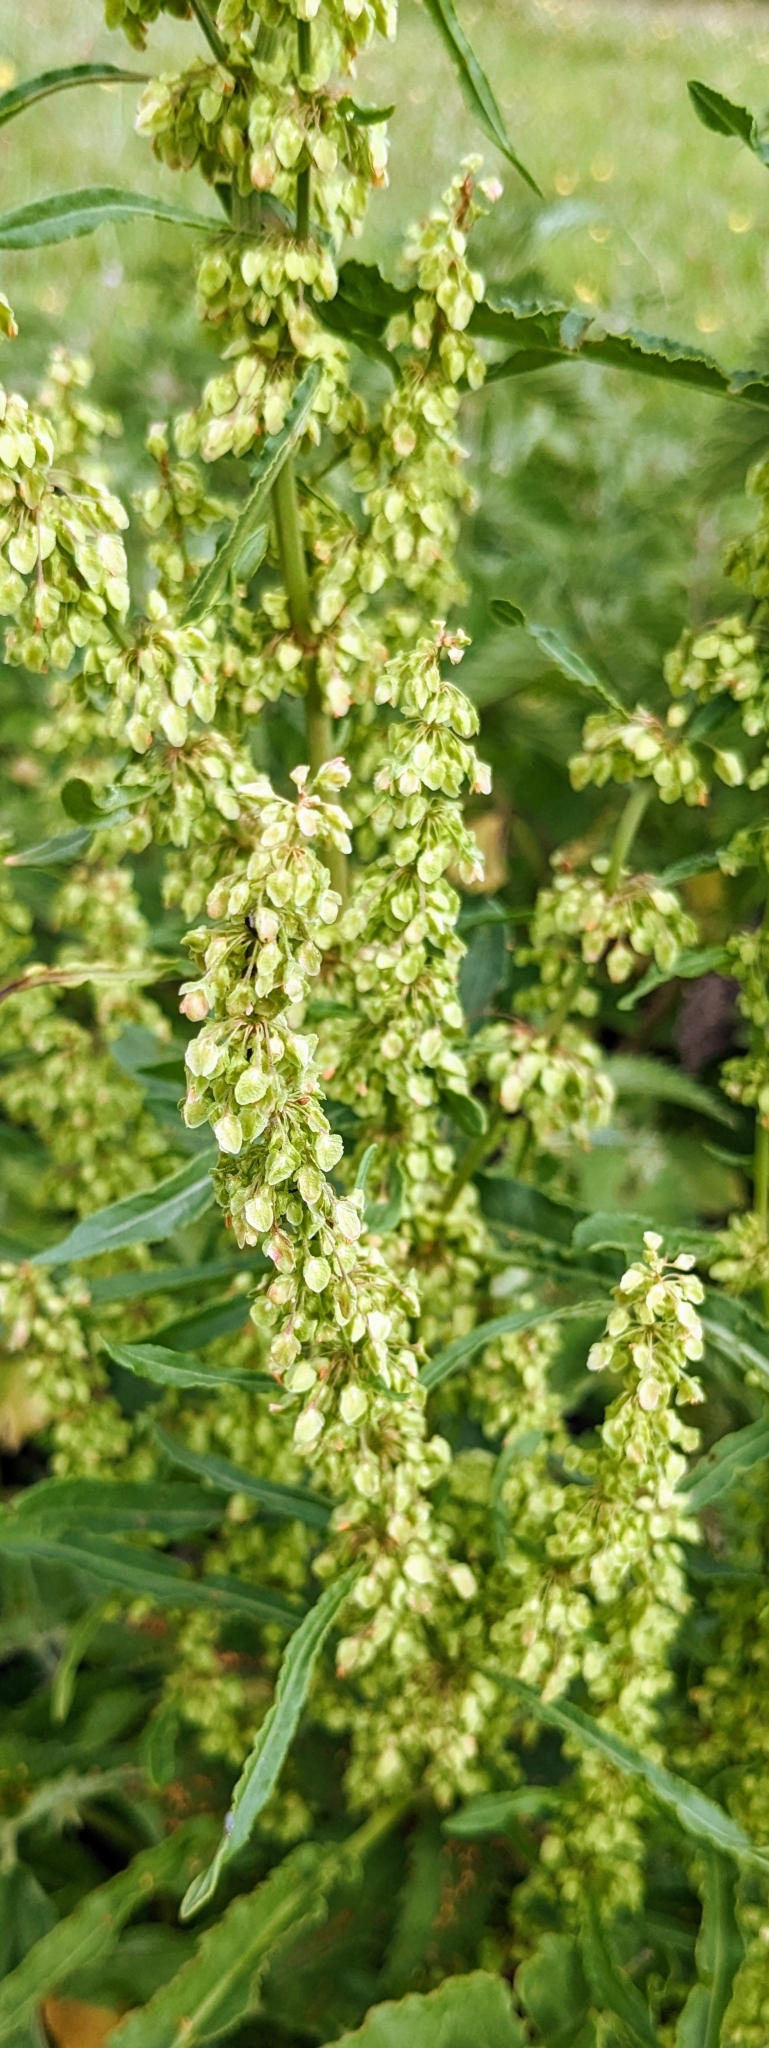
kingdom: Plantae
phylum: Tracheophyta
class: Magnoliopsida
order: Caryophyllales
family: Polygonaceae
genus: Rumex
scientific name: Rumex crispus
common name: Curled dock
